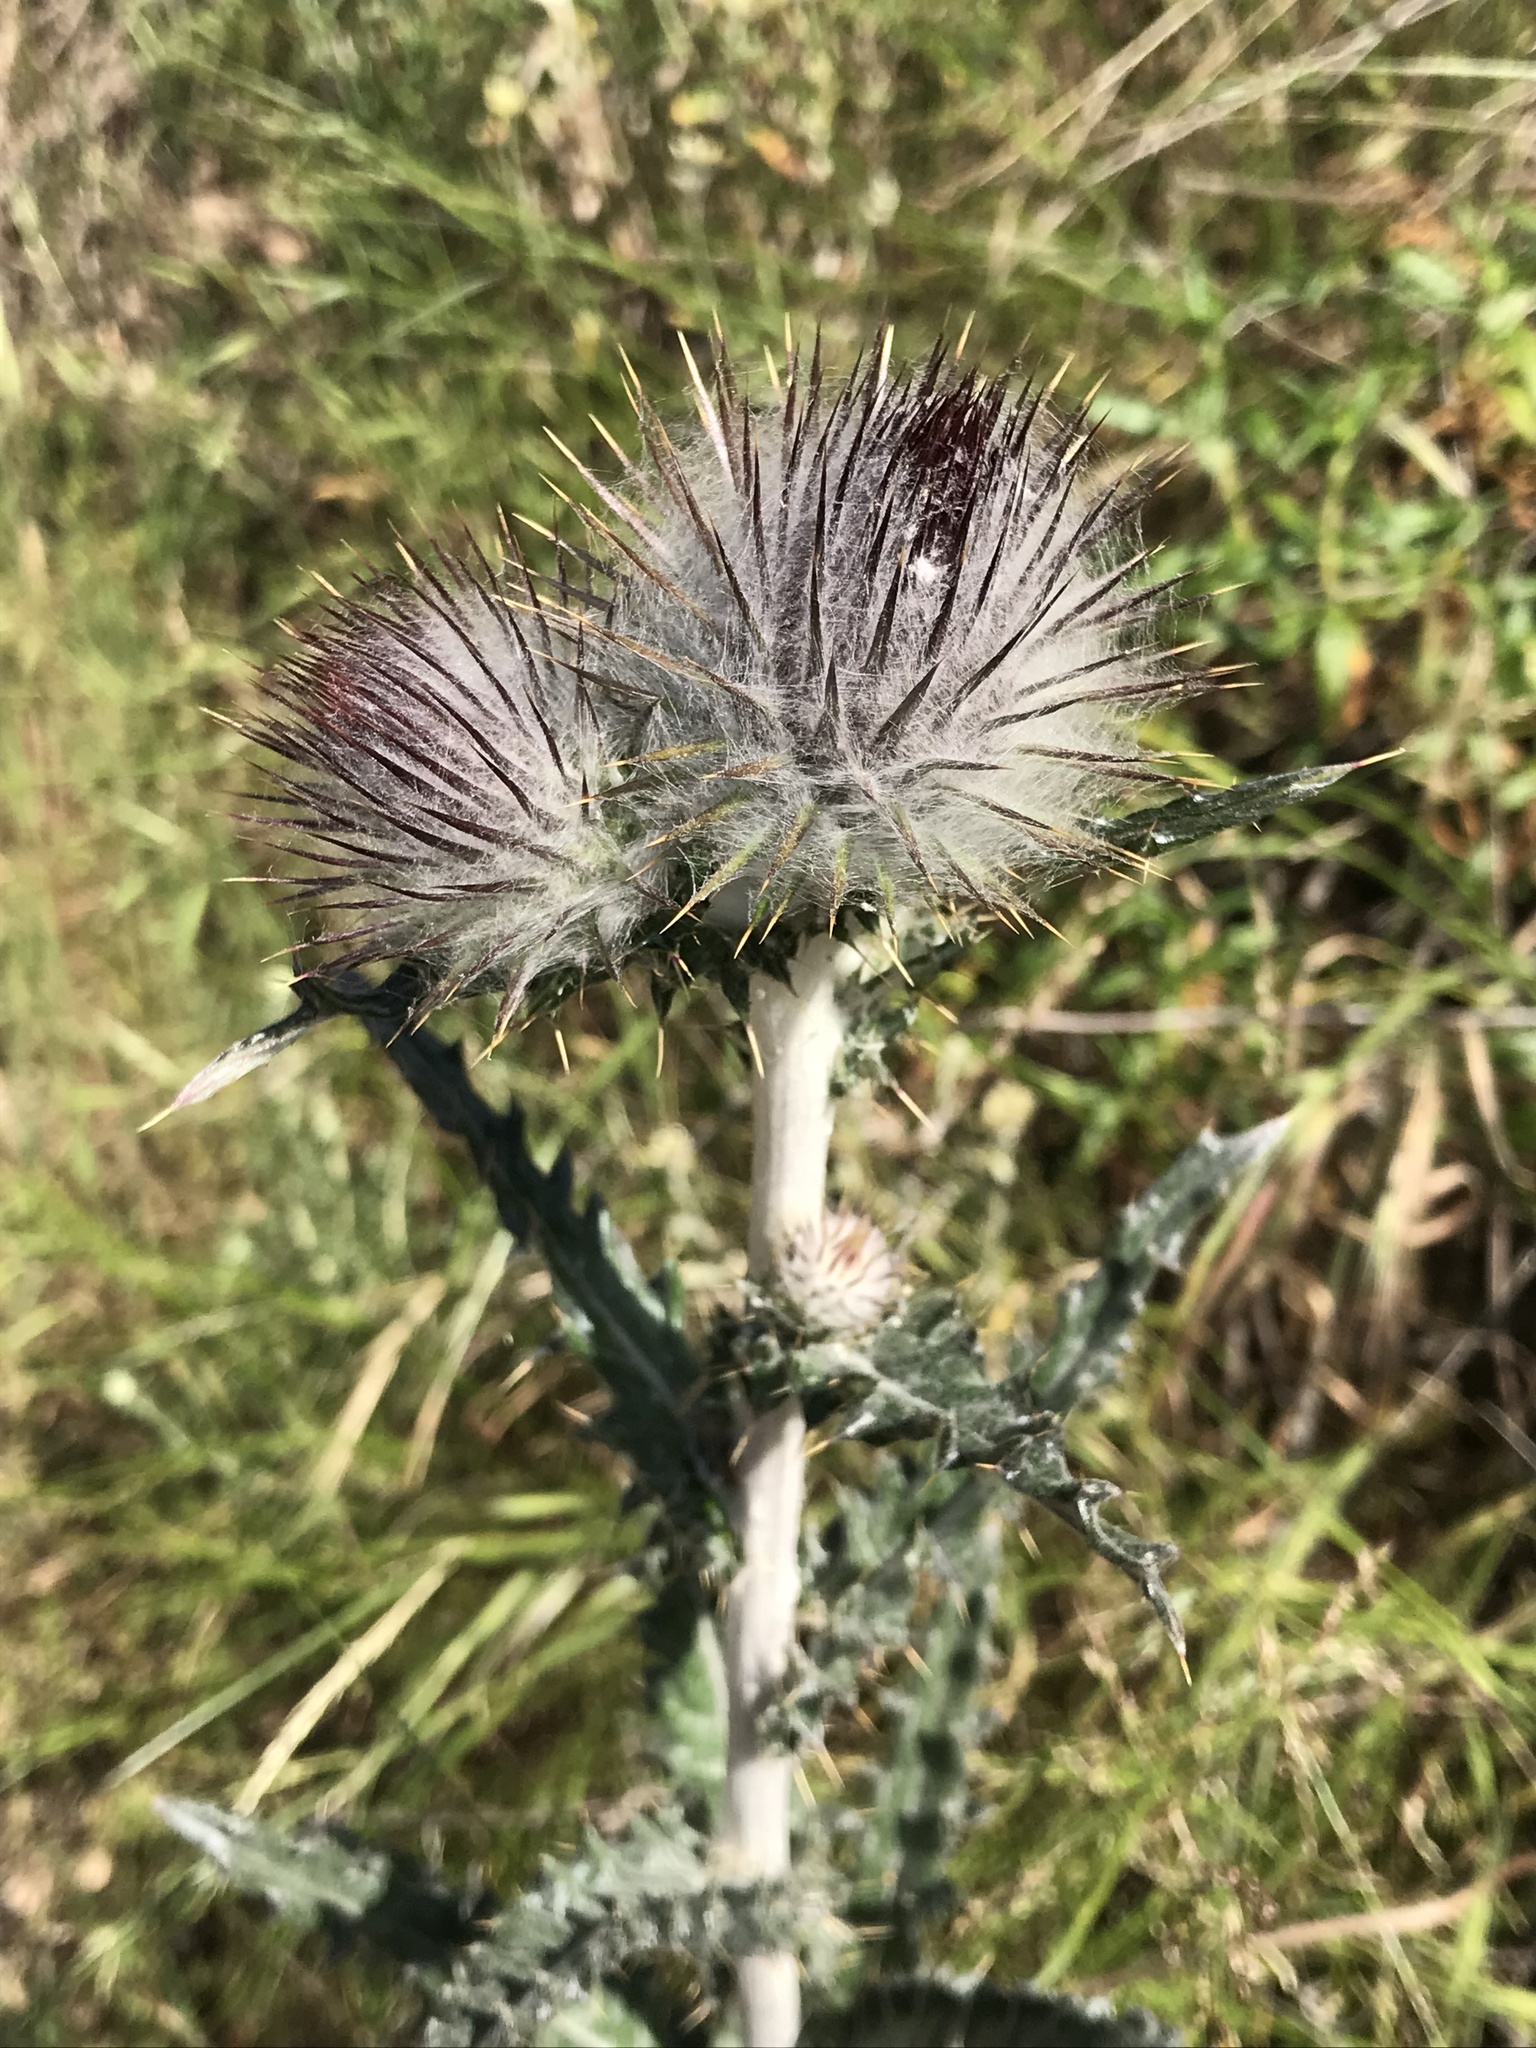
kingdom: Plantae
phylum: Tracheophyta
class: Magnoliopsida
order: Asterales
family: Asteraceae
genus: Cirsium
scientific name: Cirsium occidentale
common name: Western thistle
